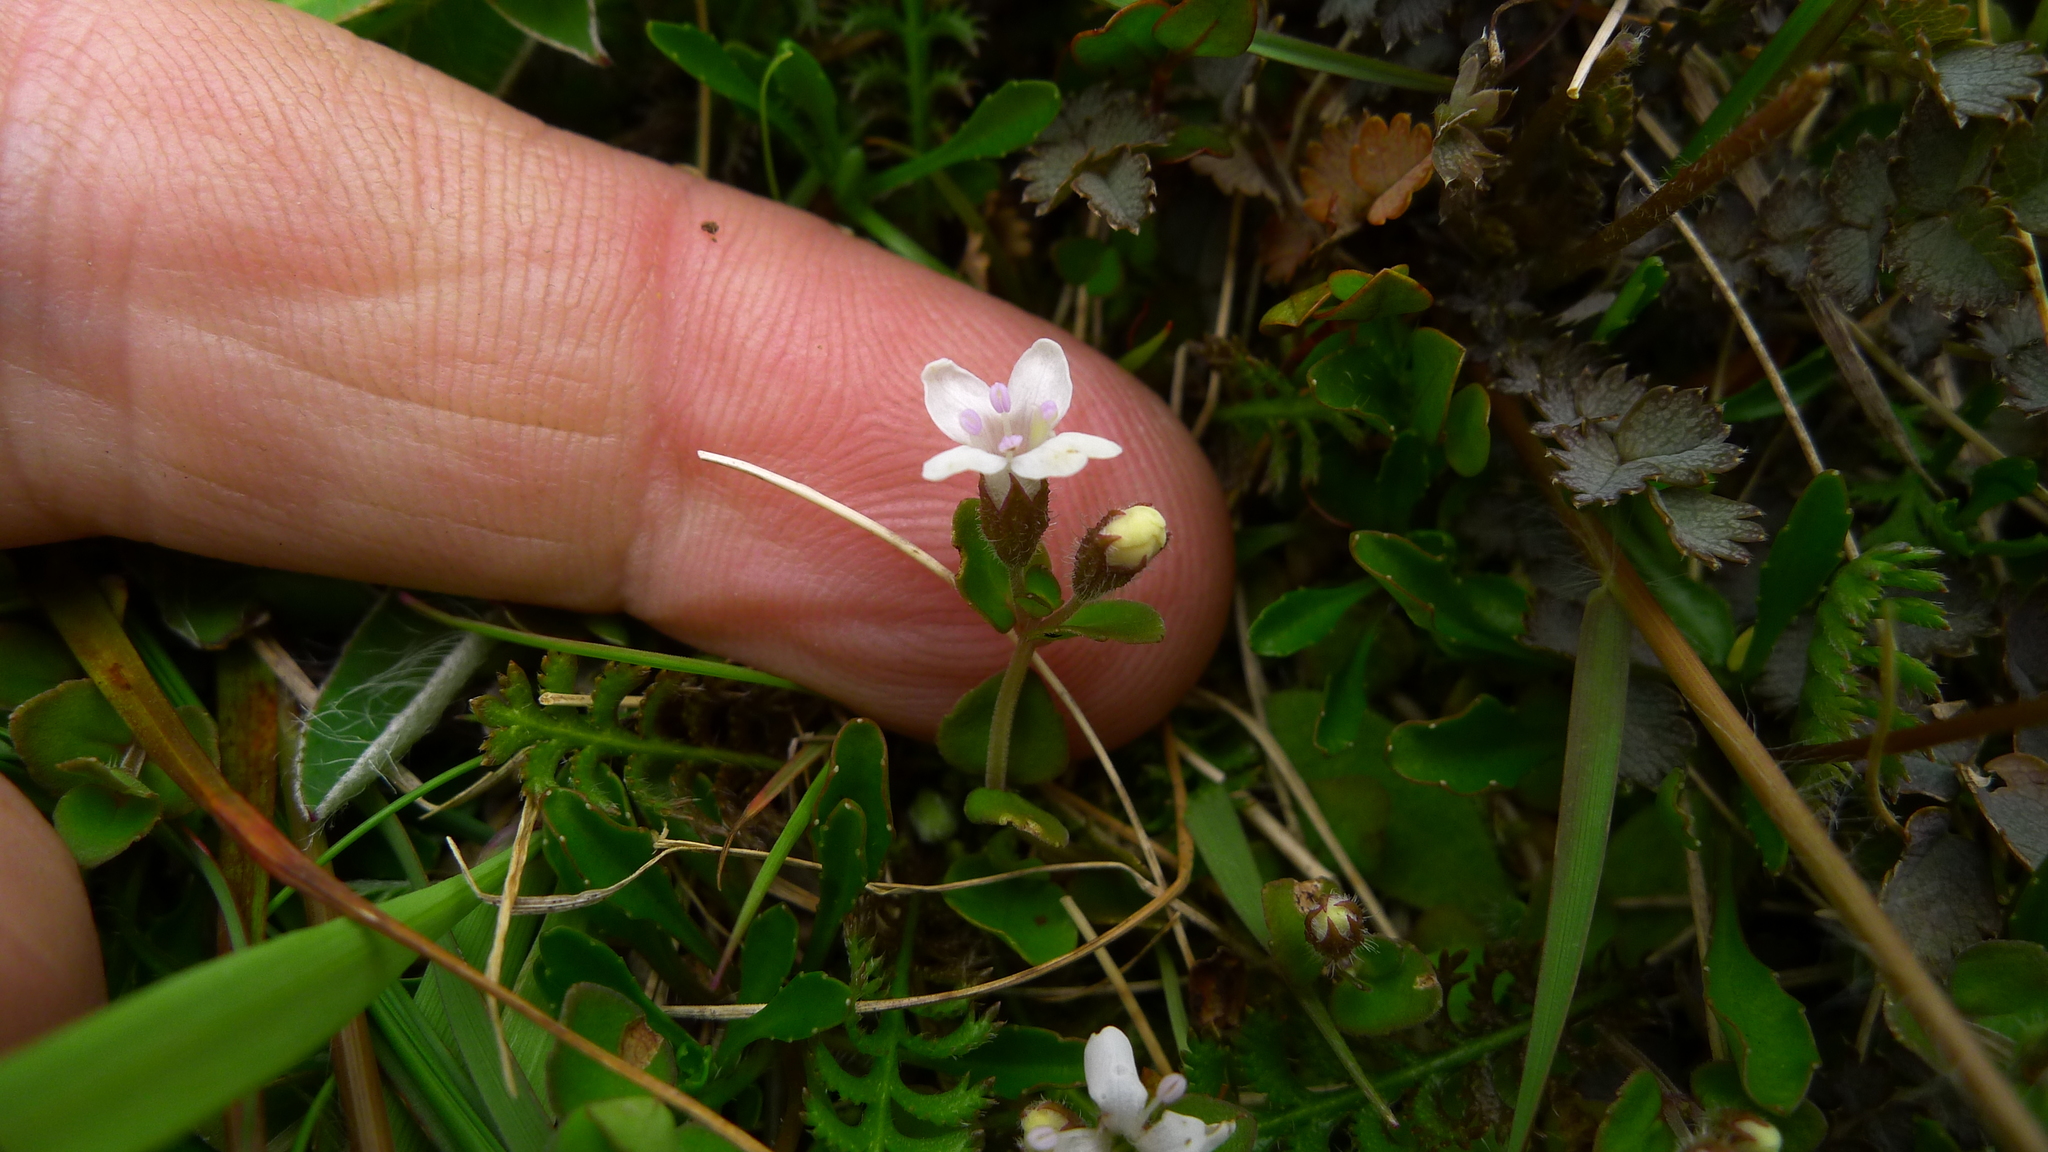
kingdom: Plantae
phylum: Tracheophyta
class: Magnoliopsida
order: Lamiales
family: Lamiaceae
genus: Mentha
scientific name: Mentha cunninghamii
